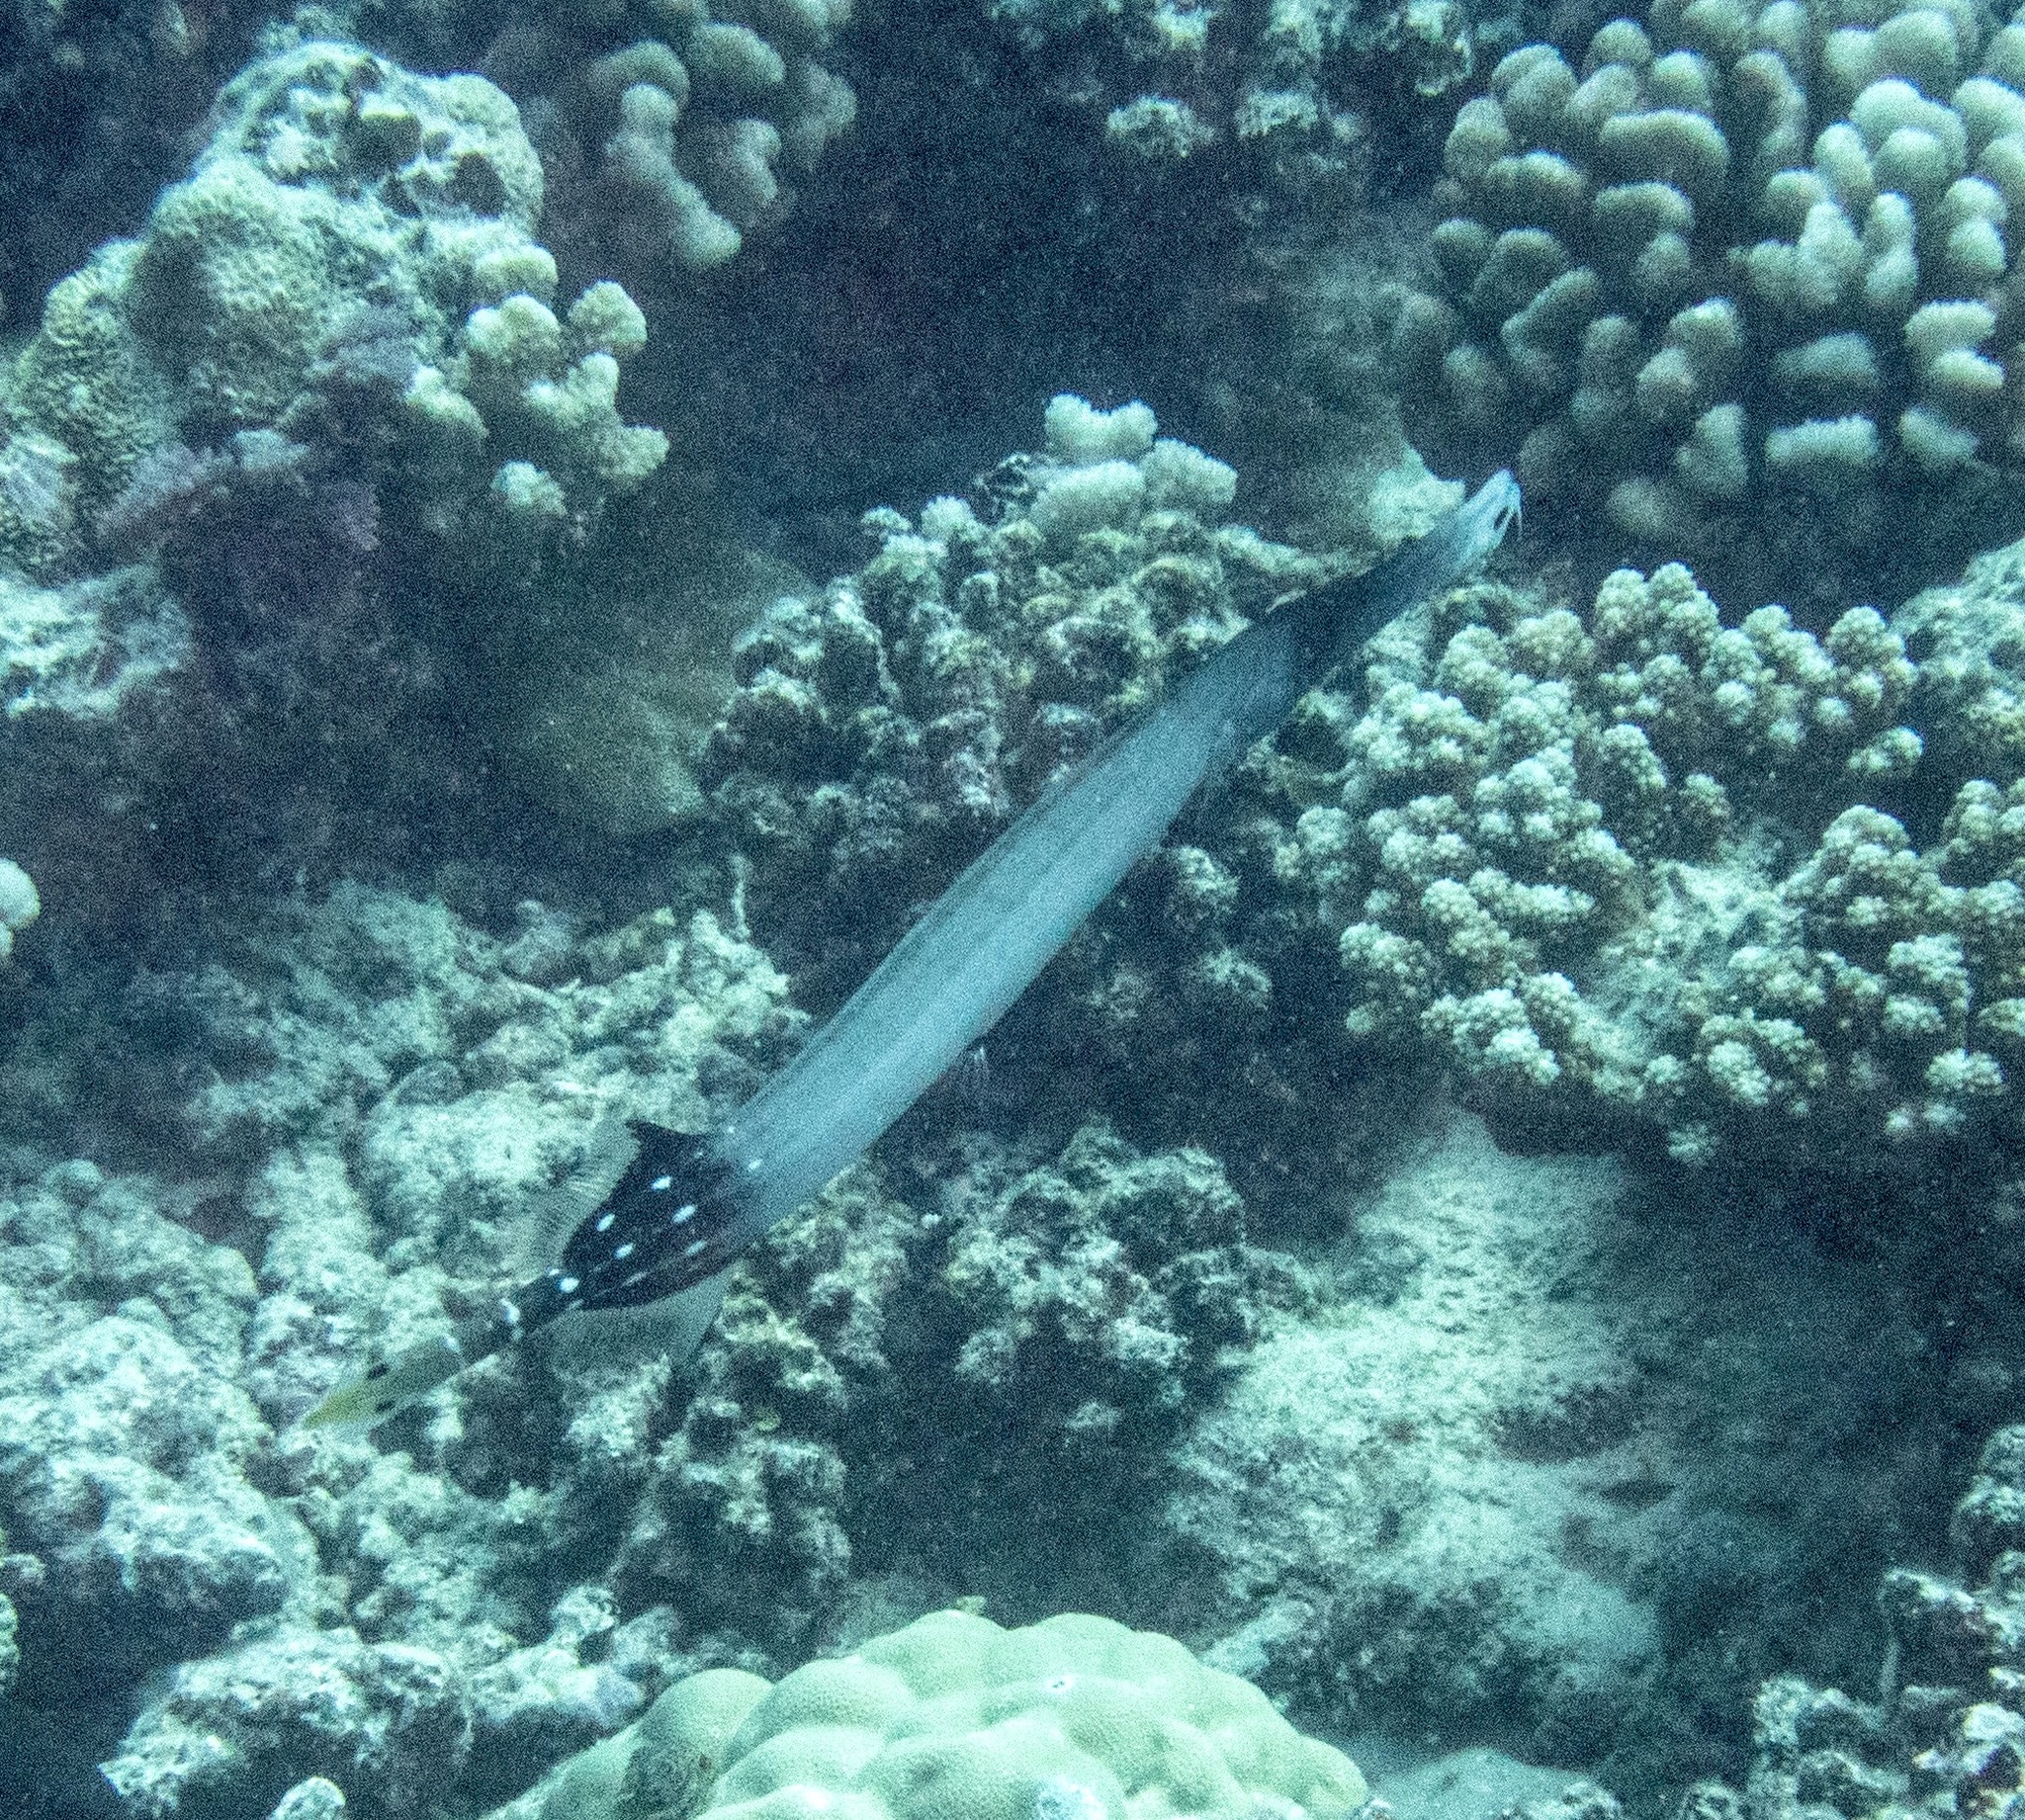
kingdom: Animalia
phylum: Chordata
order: Syngnathiformes
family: Aulostomidae
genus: Aulostomus
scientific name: Aulostomus chinensis
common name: Chinese trumpetfish
